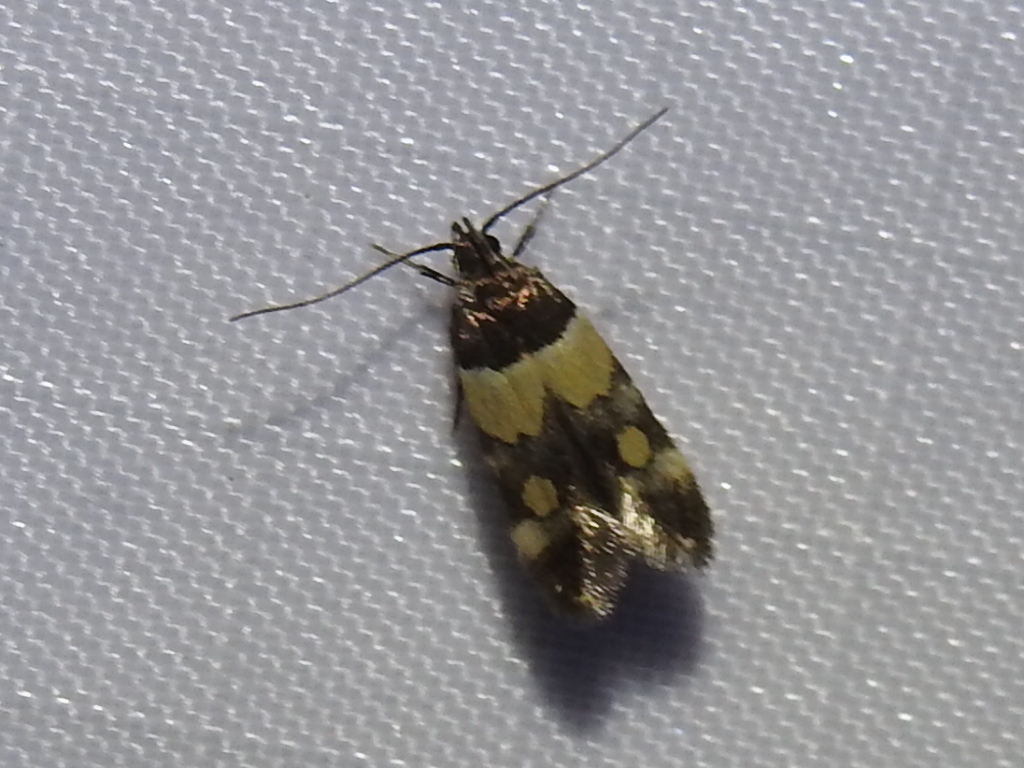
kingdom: Animalia
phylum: Arthropoda
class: Insecta
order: Lepidoptera
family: Momphidae
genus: Triclonella
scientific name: Triclonella determinatella
